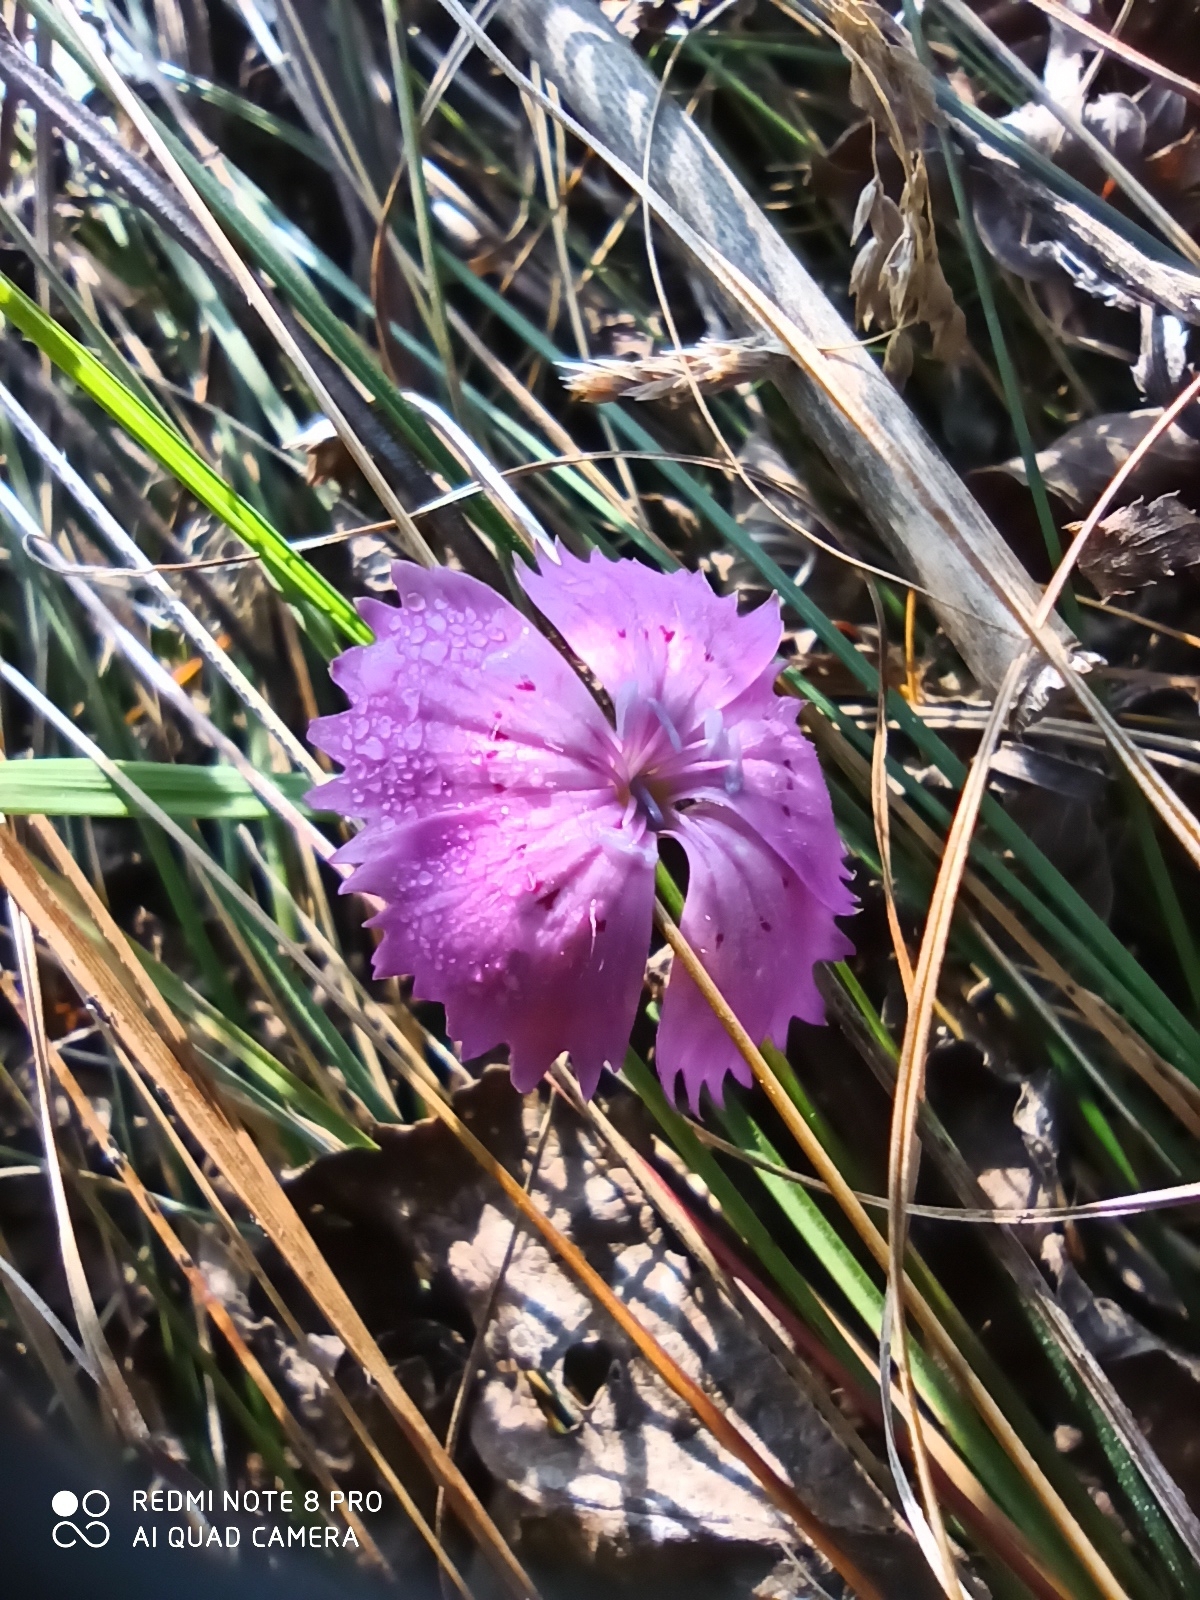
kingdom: Plantae
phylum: Tracheophyta
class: Magnoliopsida
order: Caryophyllales
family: Caryophyllaceae
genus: Dianthus
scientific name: Dianthus chinensis
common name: Rainbow pink
